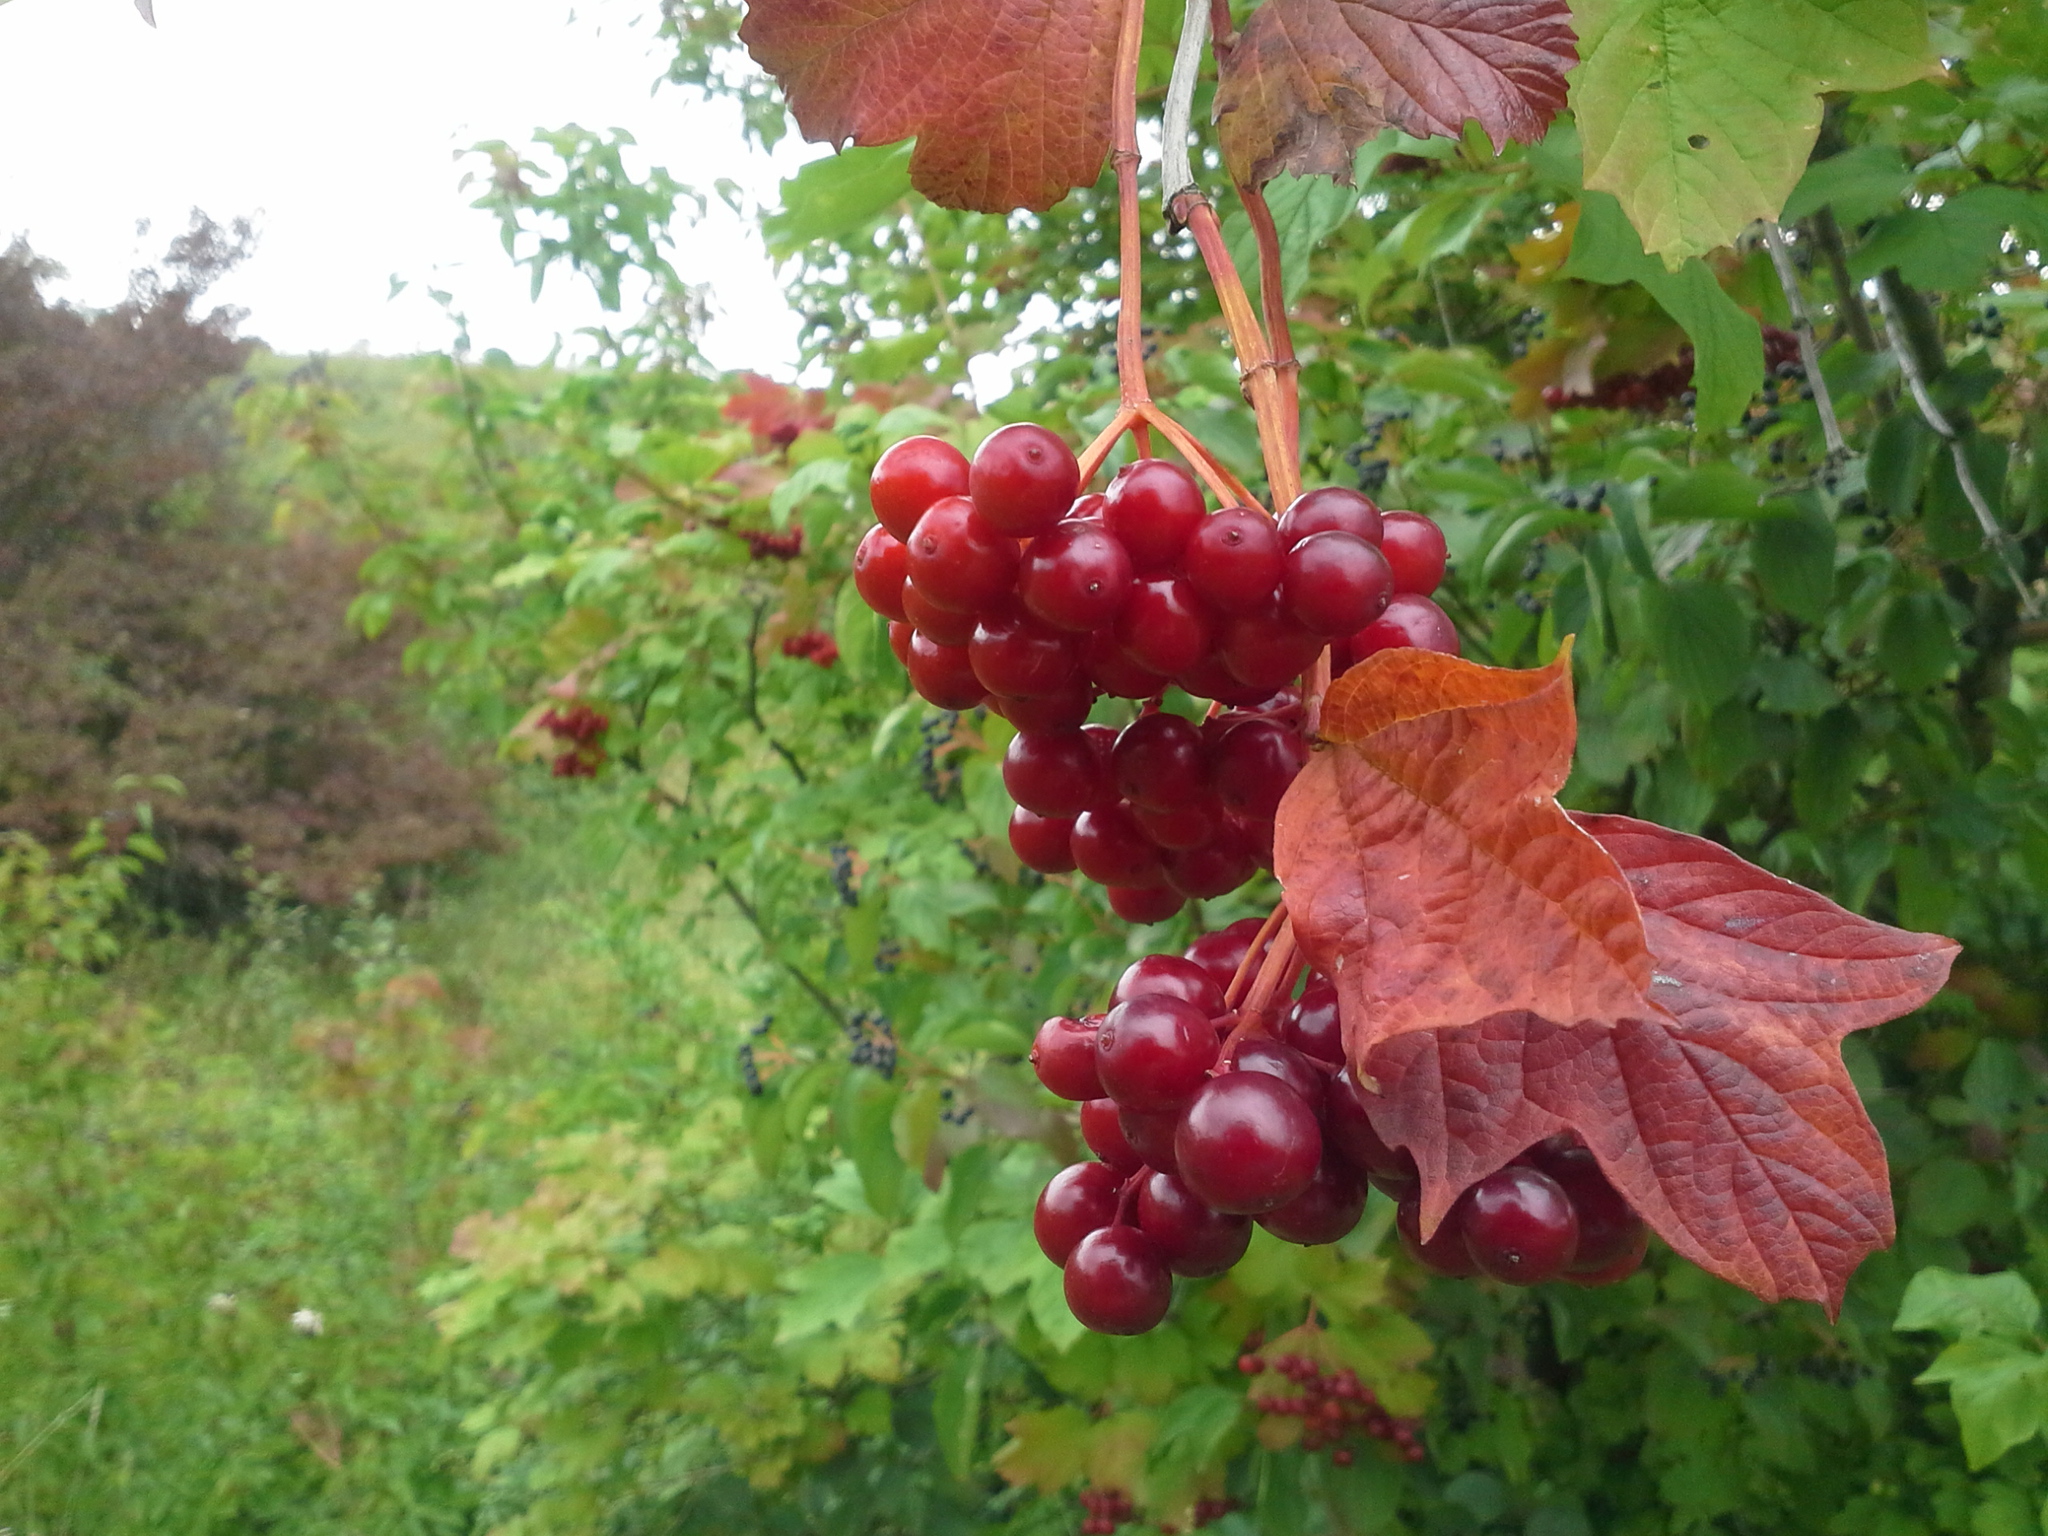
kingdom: Plantae
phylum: Tracheophyta
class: Magnoliopsida
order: Dipsacales
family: Viburnaceae
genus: Viburnum
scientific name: Viburnum opulus
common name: Guelder-rose
